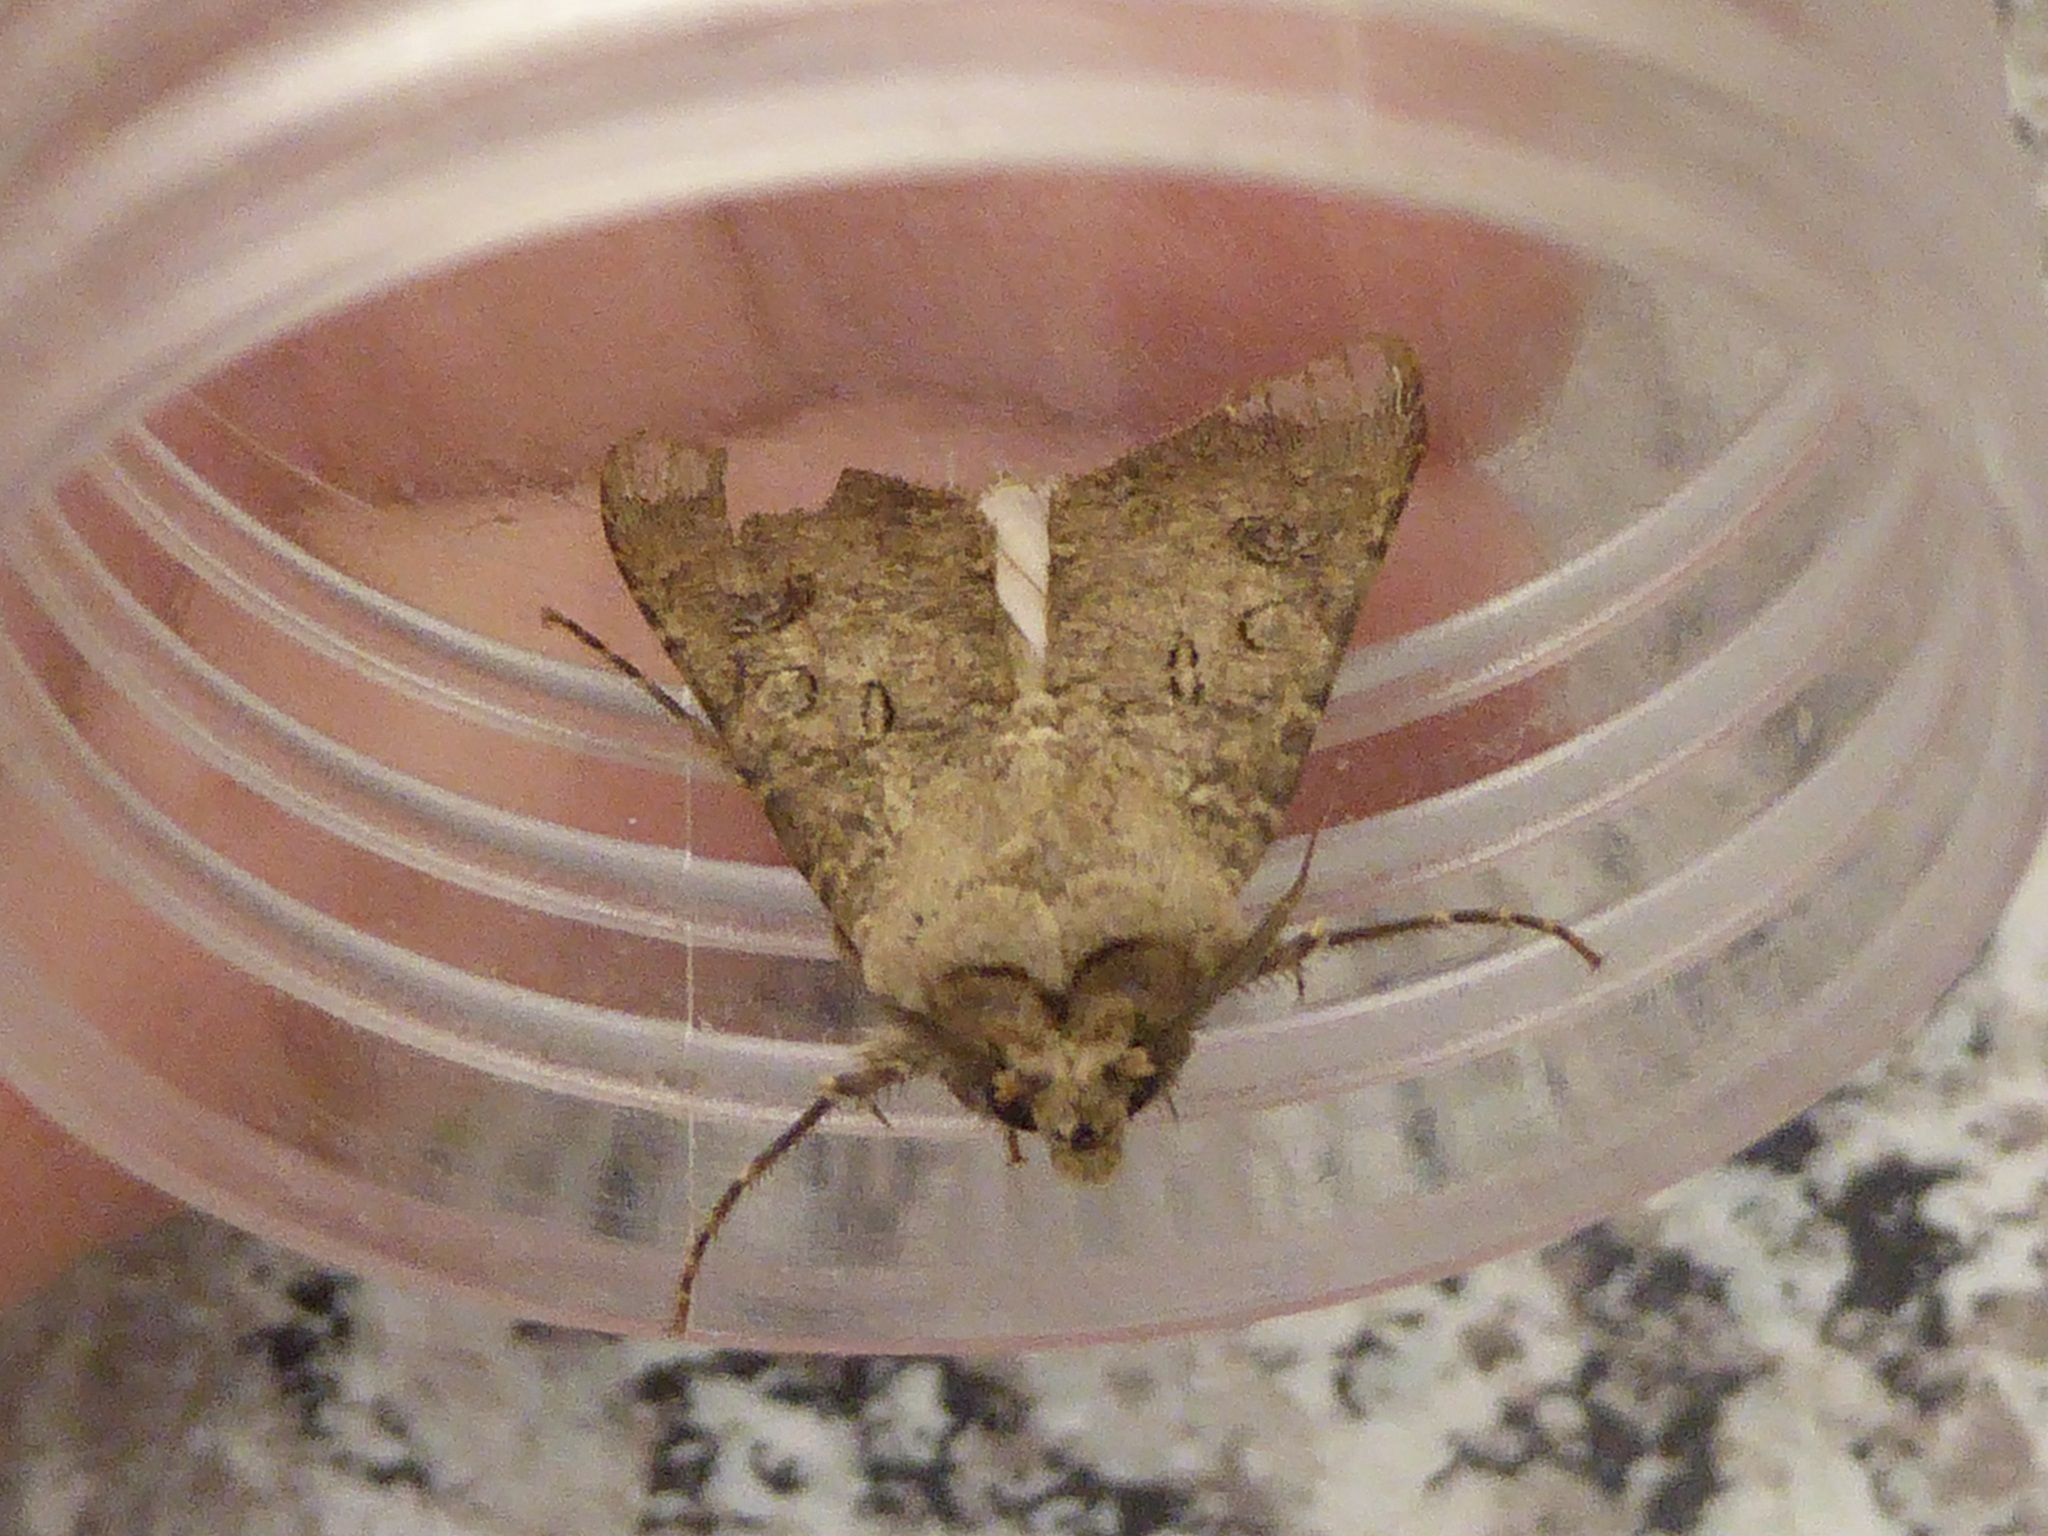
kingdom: Animalia
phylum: Arthropoda
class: Insecta
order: Lepidoptera
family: Noctuidae
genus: Agrotis
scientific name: Agrotis segetum
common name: Turnip moth
